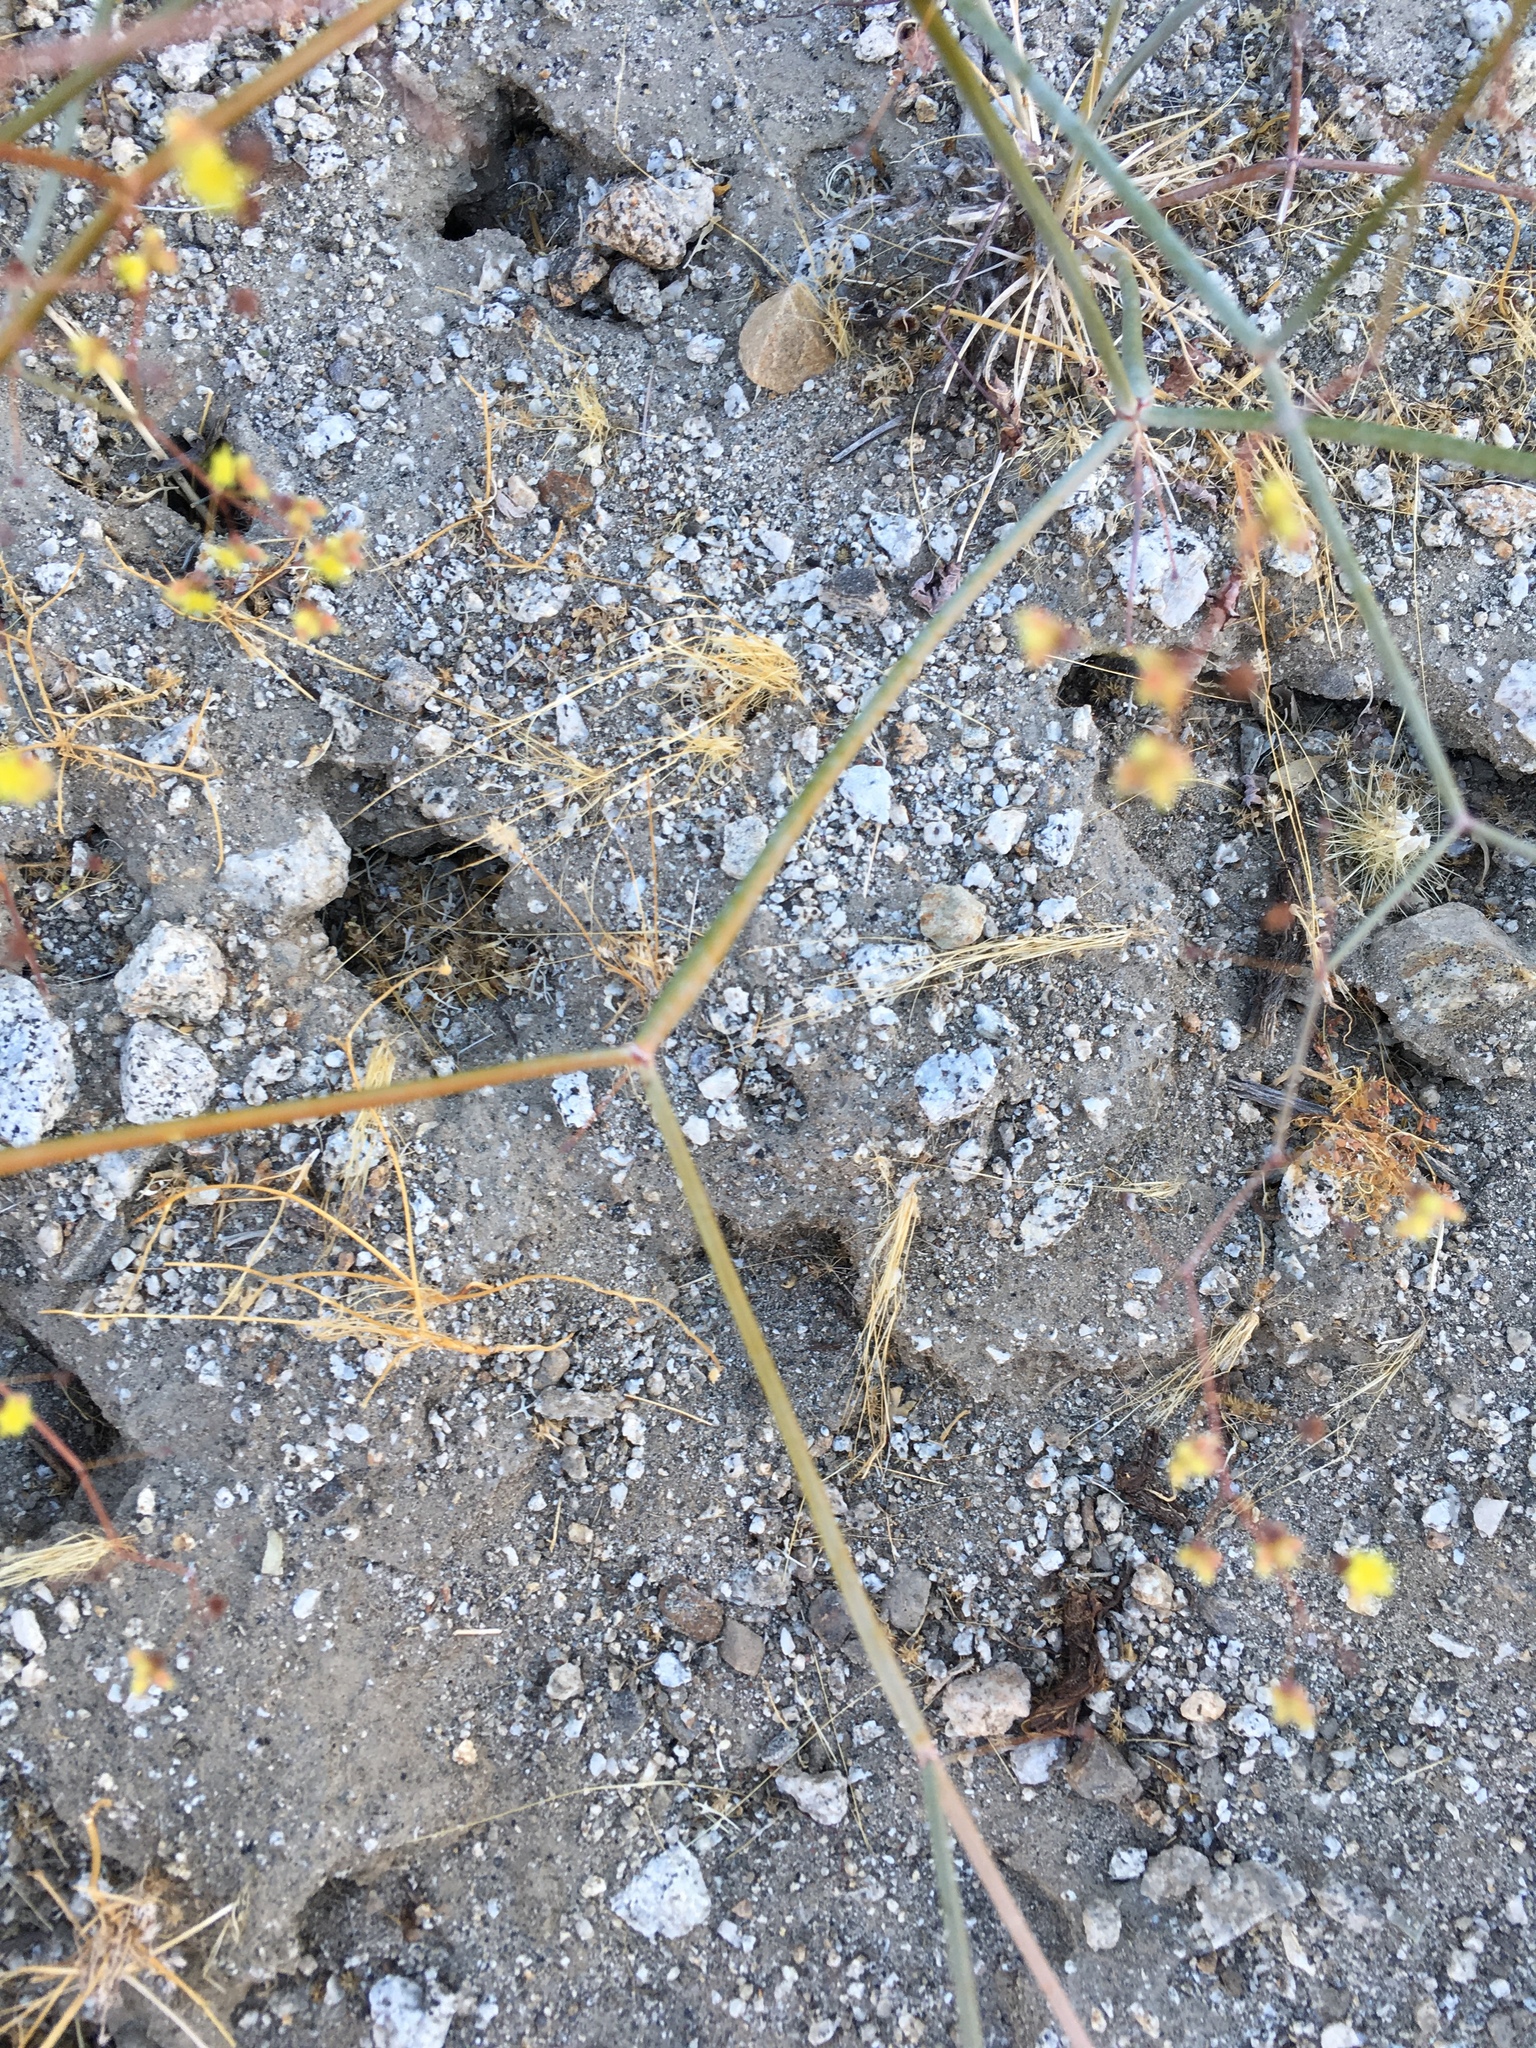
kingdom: Plantae
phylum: Tracheophyta
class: Magnoliopsida
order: Caryophyllales
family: Polygonaceae
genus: Eriogonum
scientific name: Eriogonum inflatum
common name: Desert trumpet
